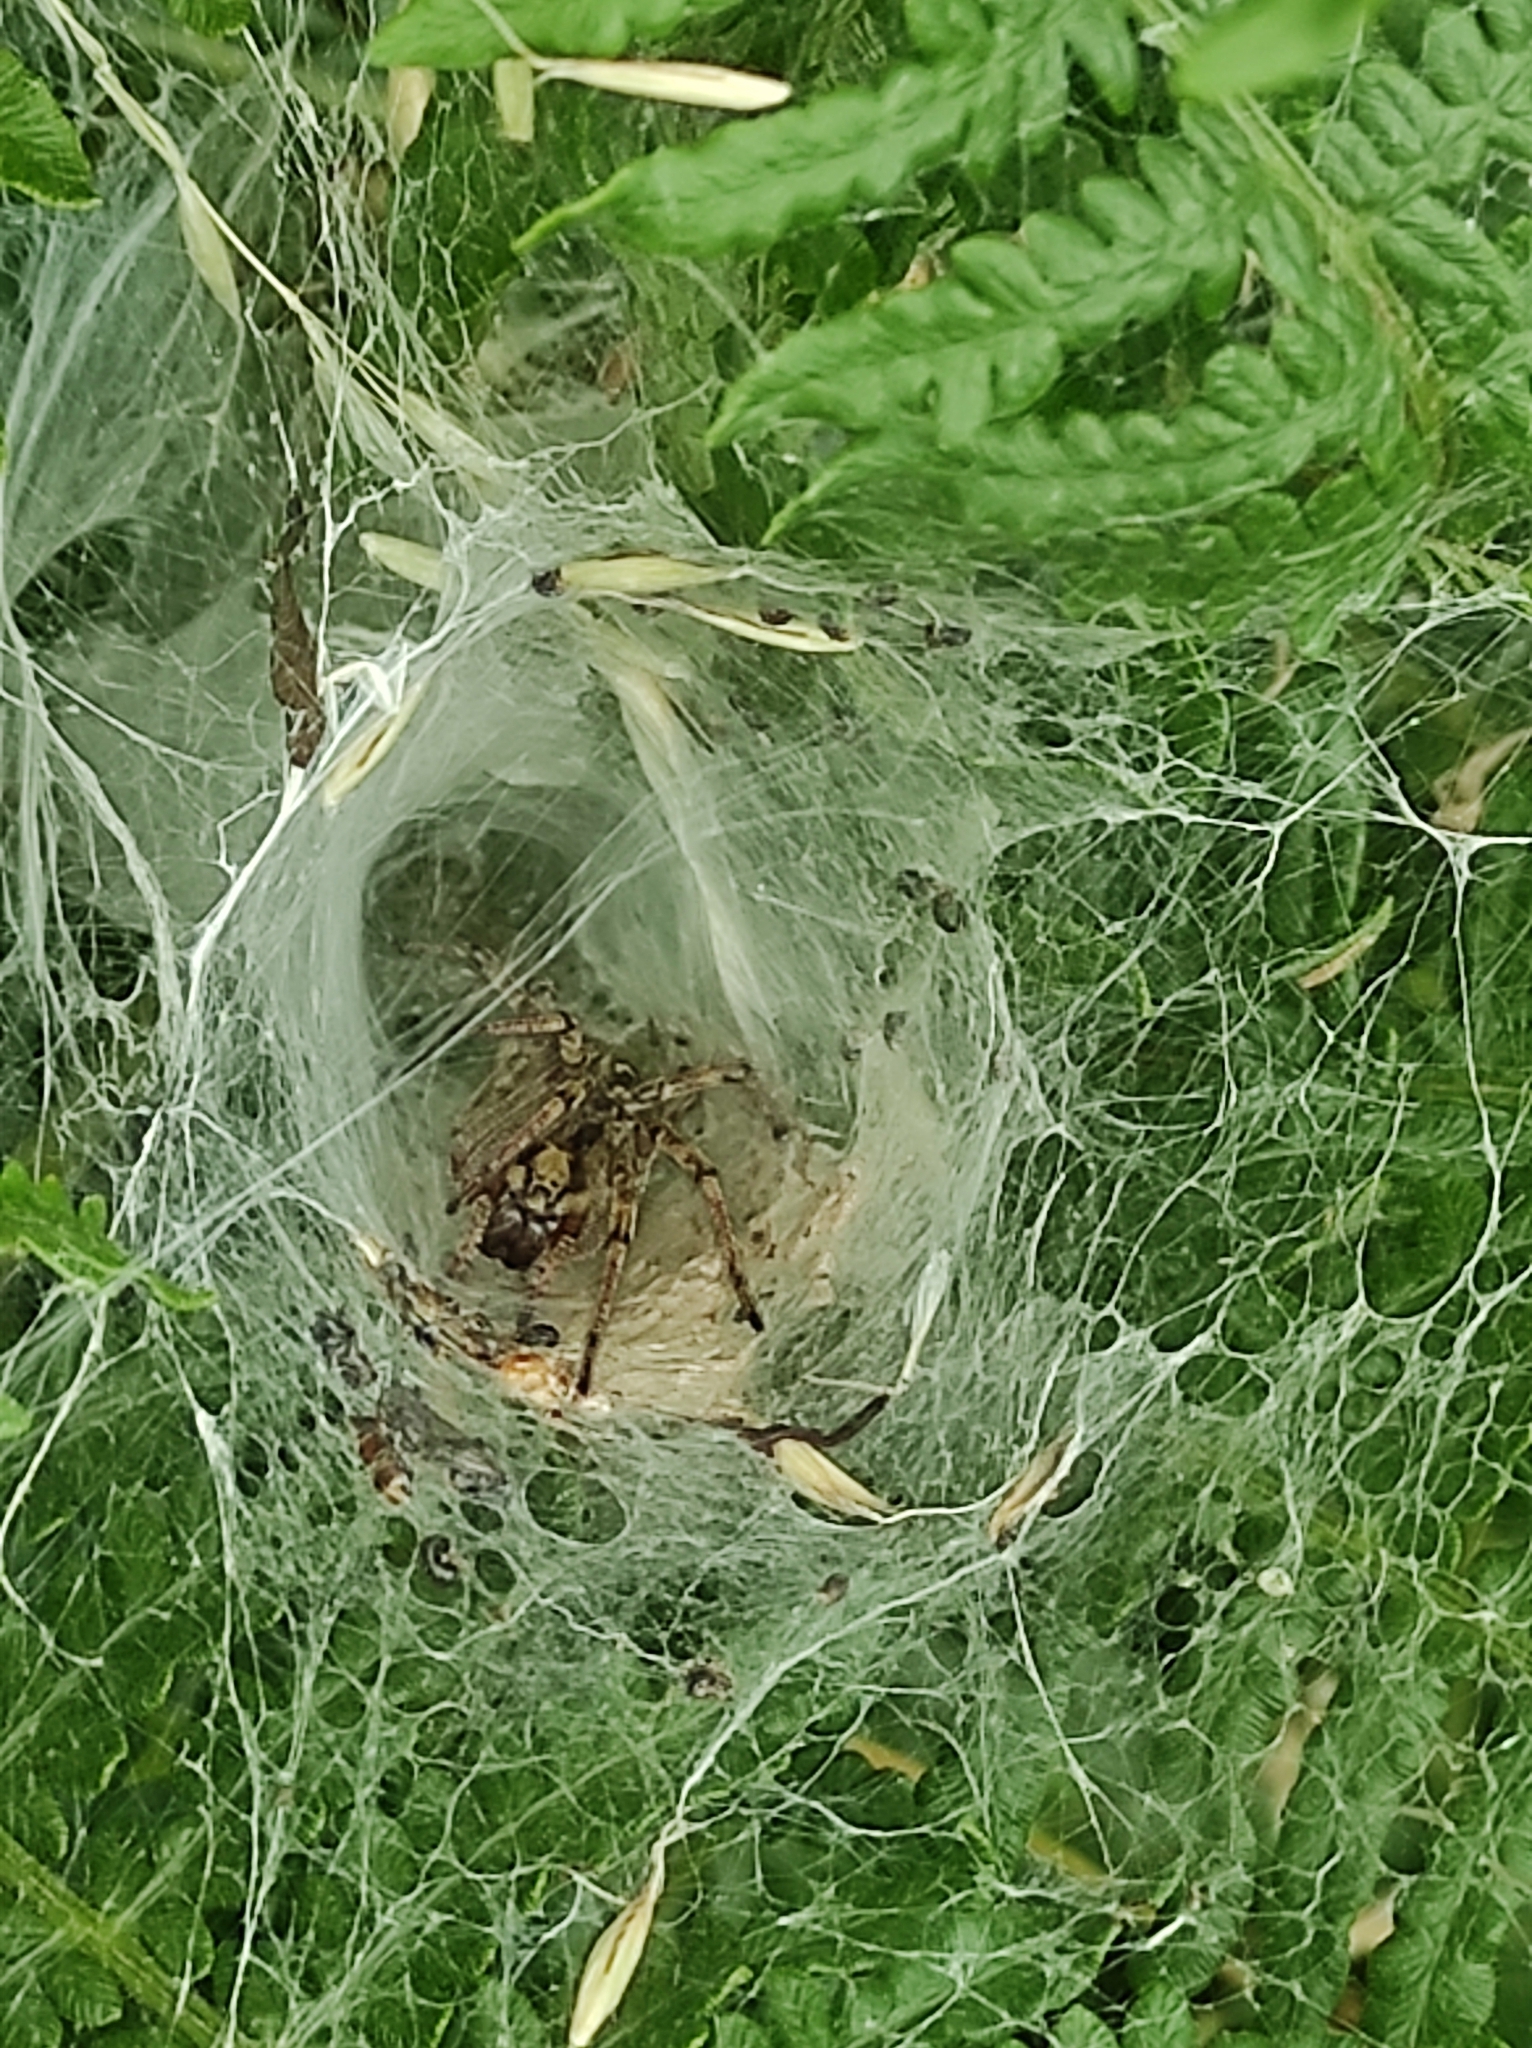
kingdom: Animalia
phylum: Arthropoda
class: Arachnida
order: Araneae
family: Agelenidae
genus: Agelena
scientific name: Agelena labyrinthica
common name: Labyrinth spider
